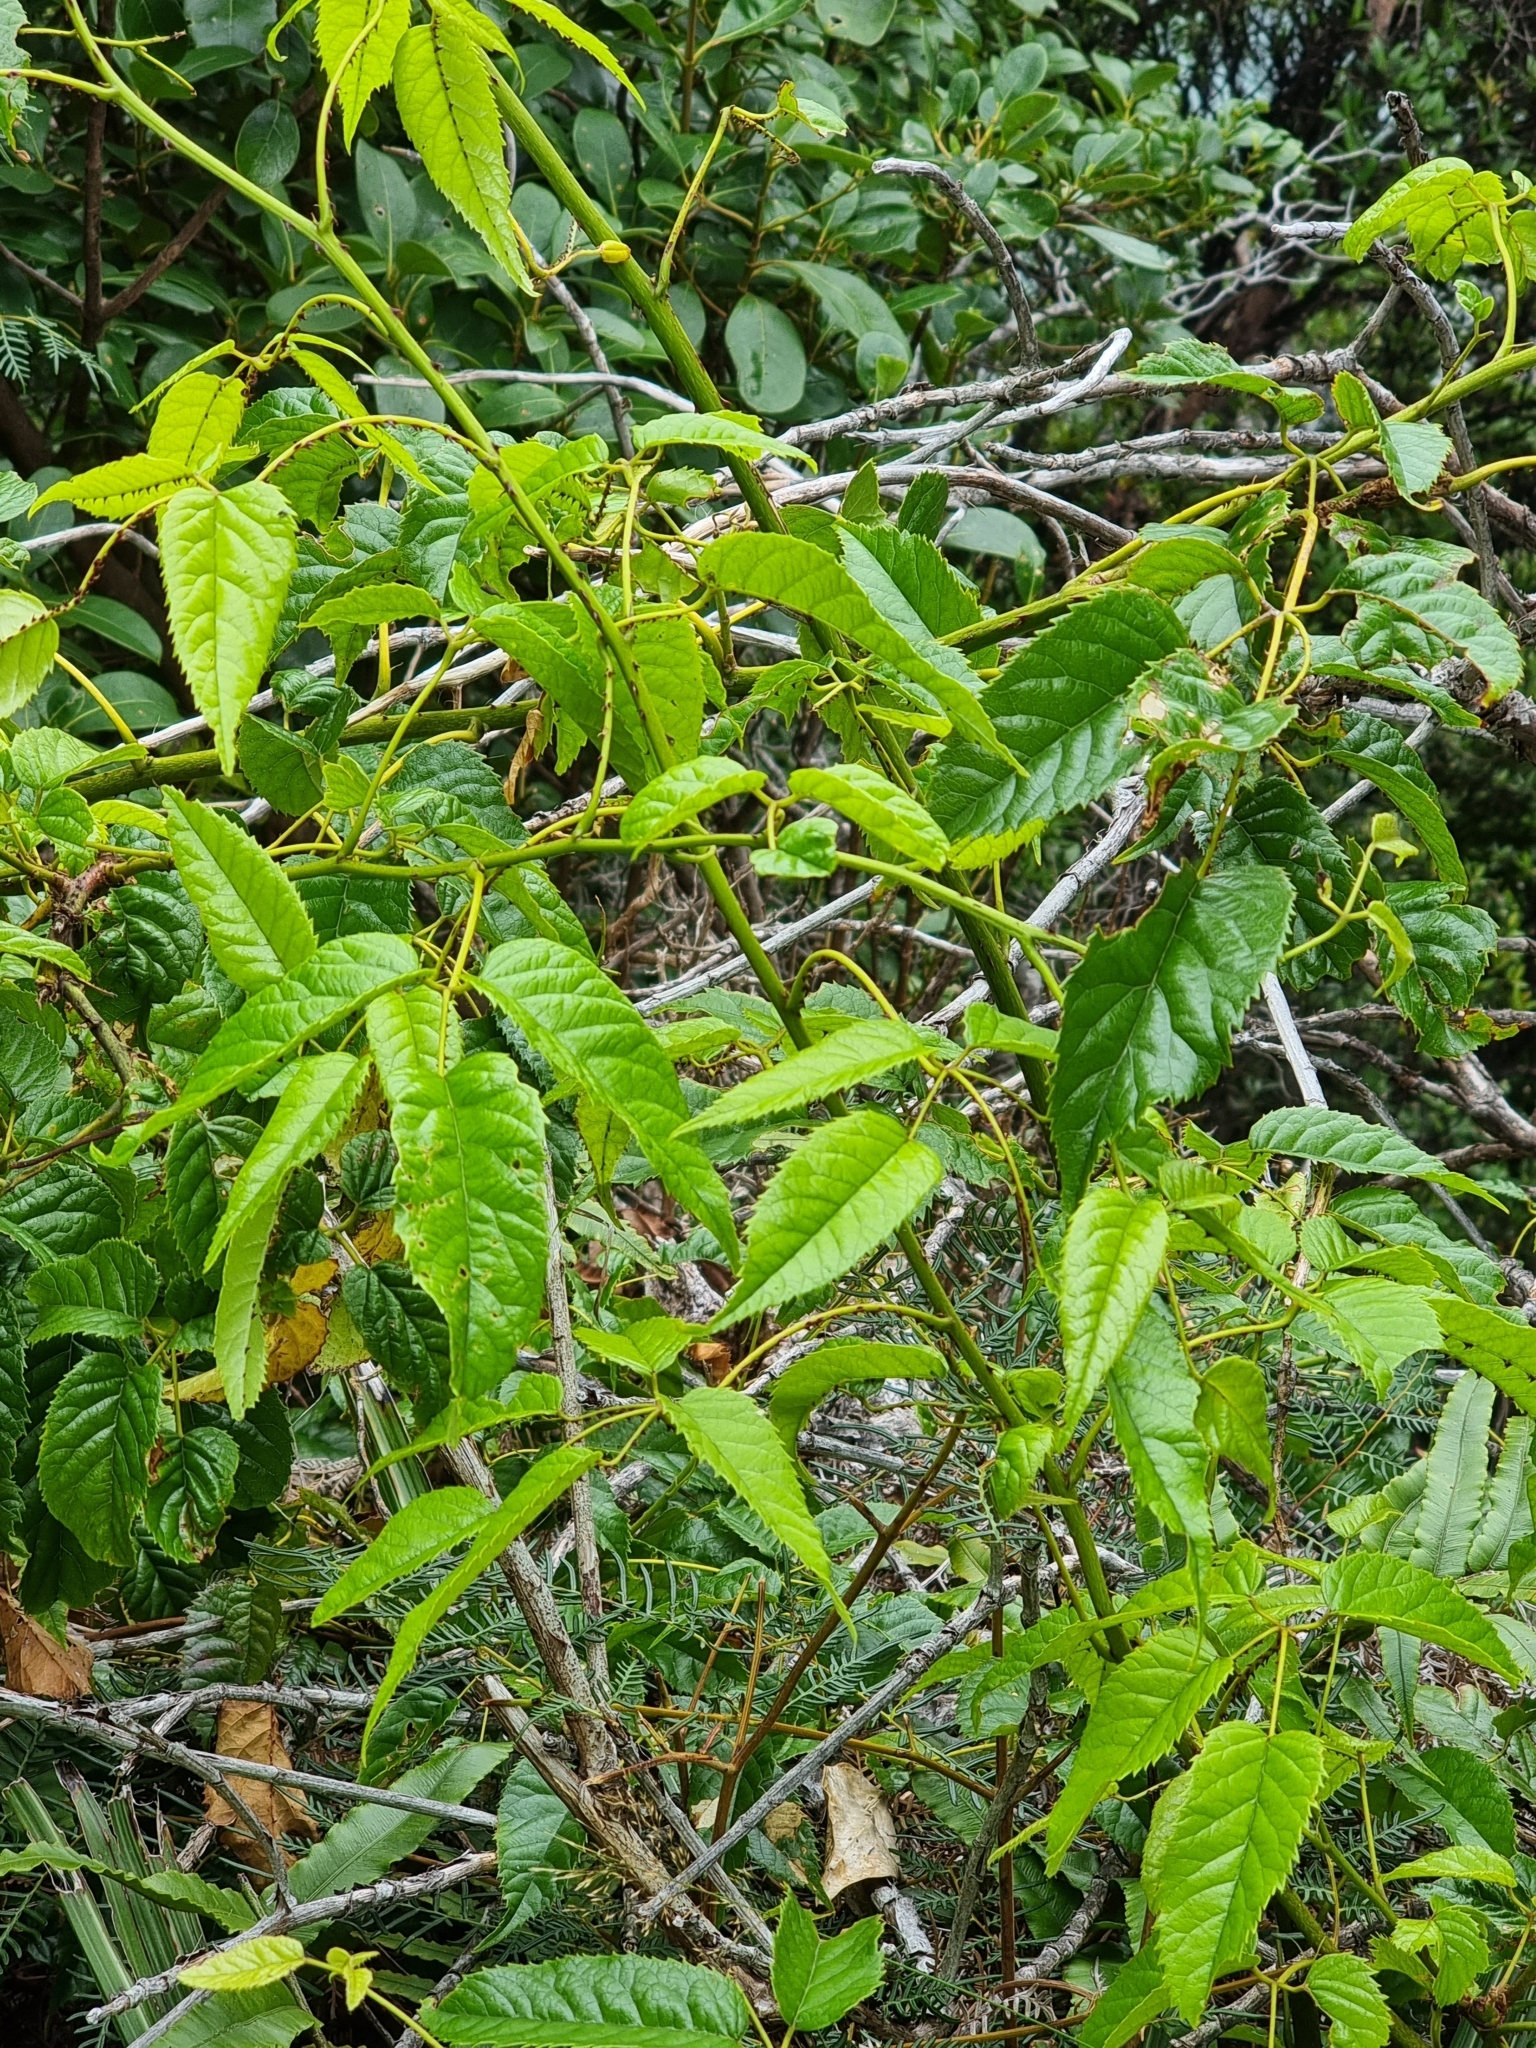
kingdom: Plantae
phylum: Tracheophyta
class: Magnoliopsida
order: Rosales
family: Rosaceae
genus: Rubus
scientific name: Rubus cissoides
